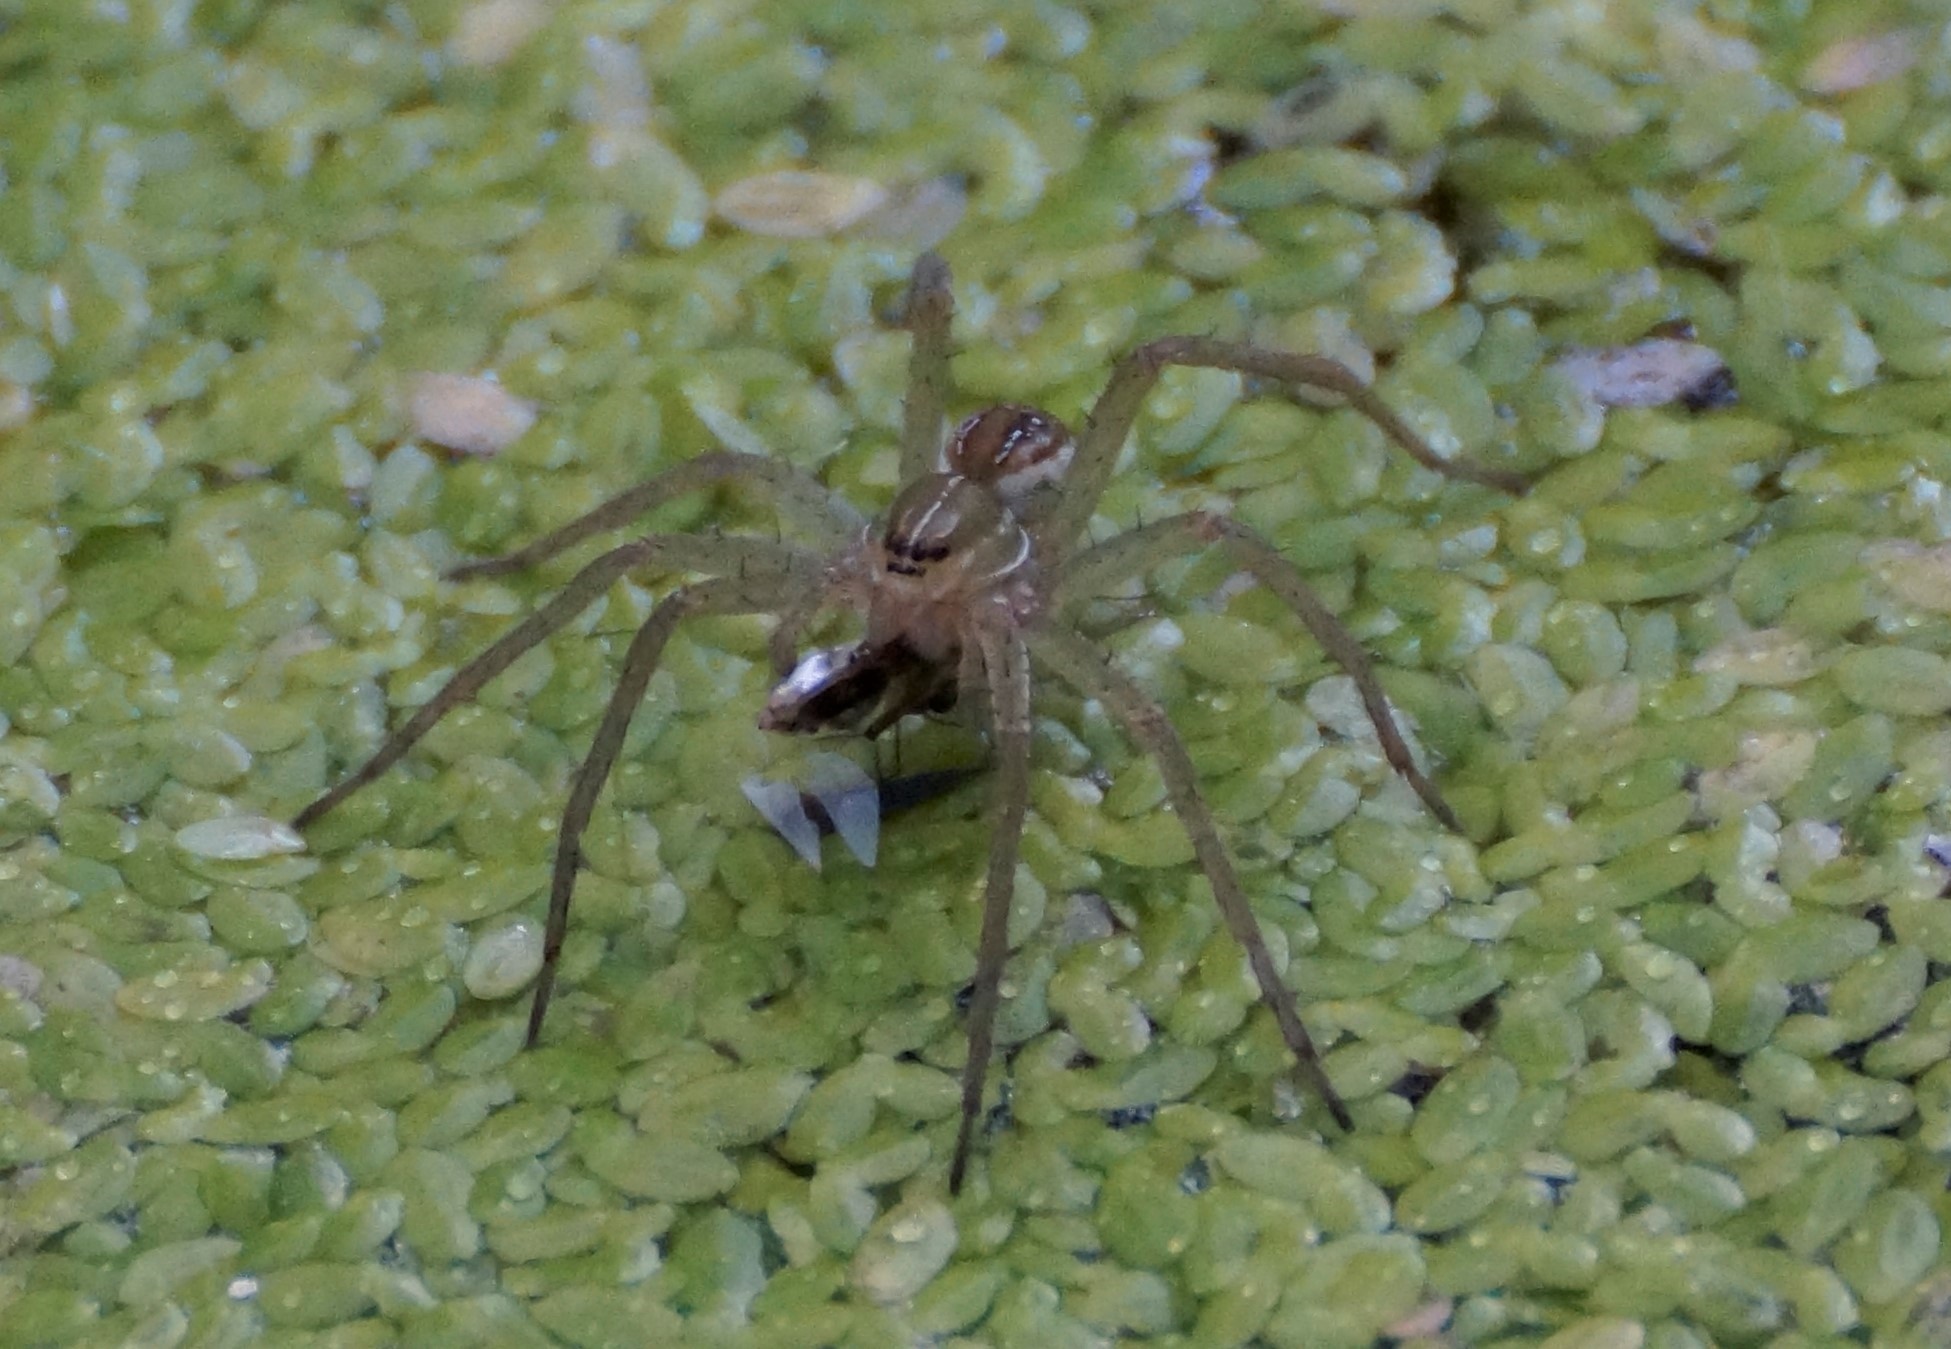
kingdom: Animalia
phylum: Arthropoda
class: Arachnida
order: Araneae
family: Pisauridae
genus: Dolomedes
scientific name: Dolomedes facetus
